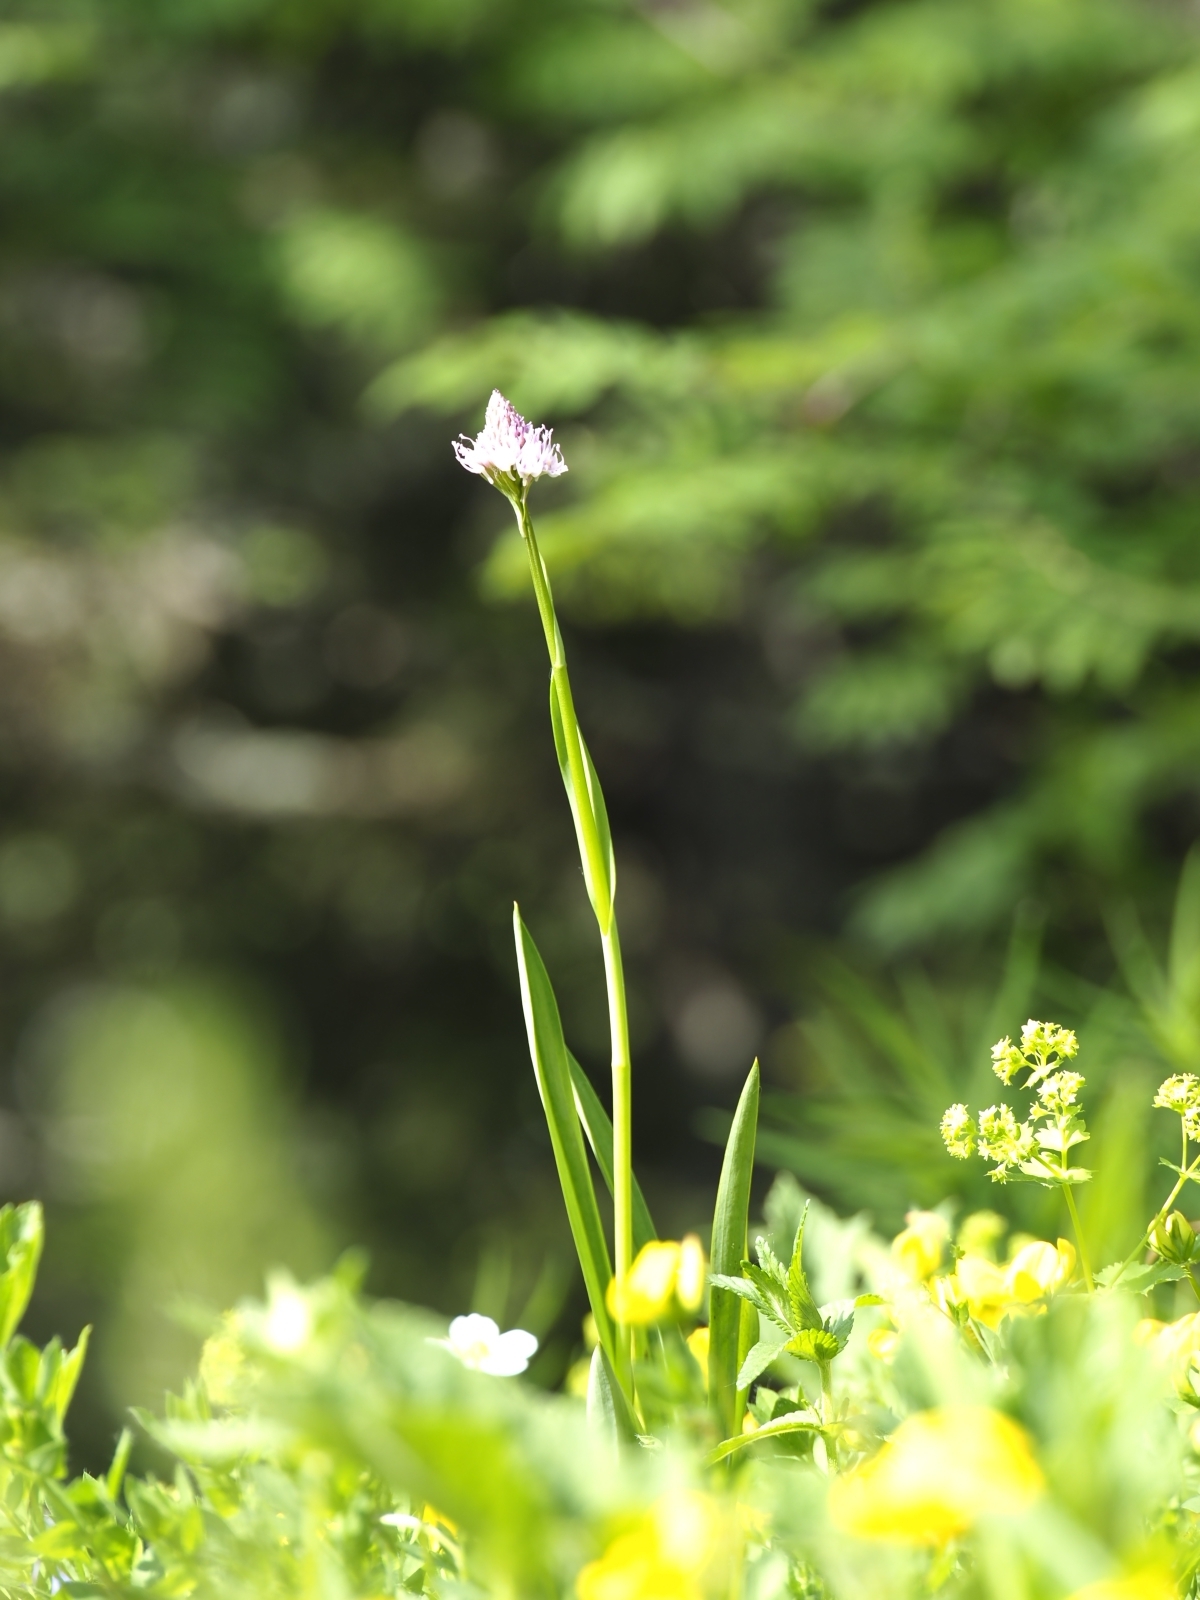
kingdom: Plantae
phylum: Tracheophyta
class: Liliopsida
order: Asparagales
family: Orchidaceae
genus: Traunsteinera
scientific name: Traunsteinera globosa
